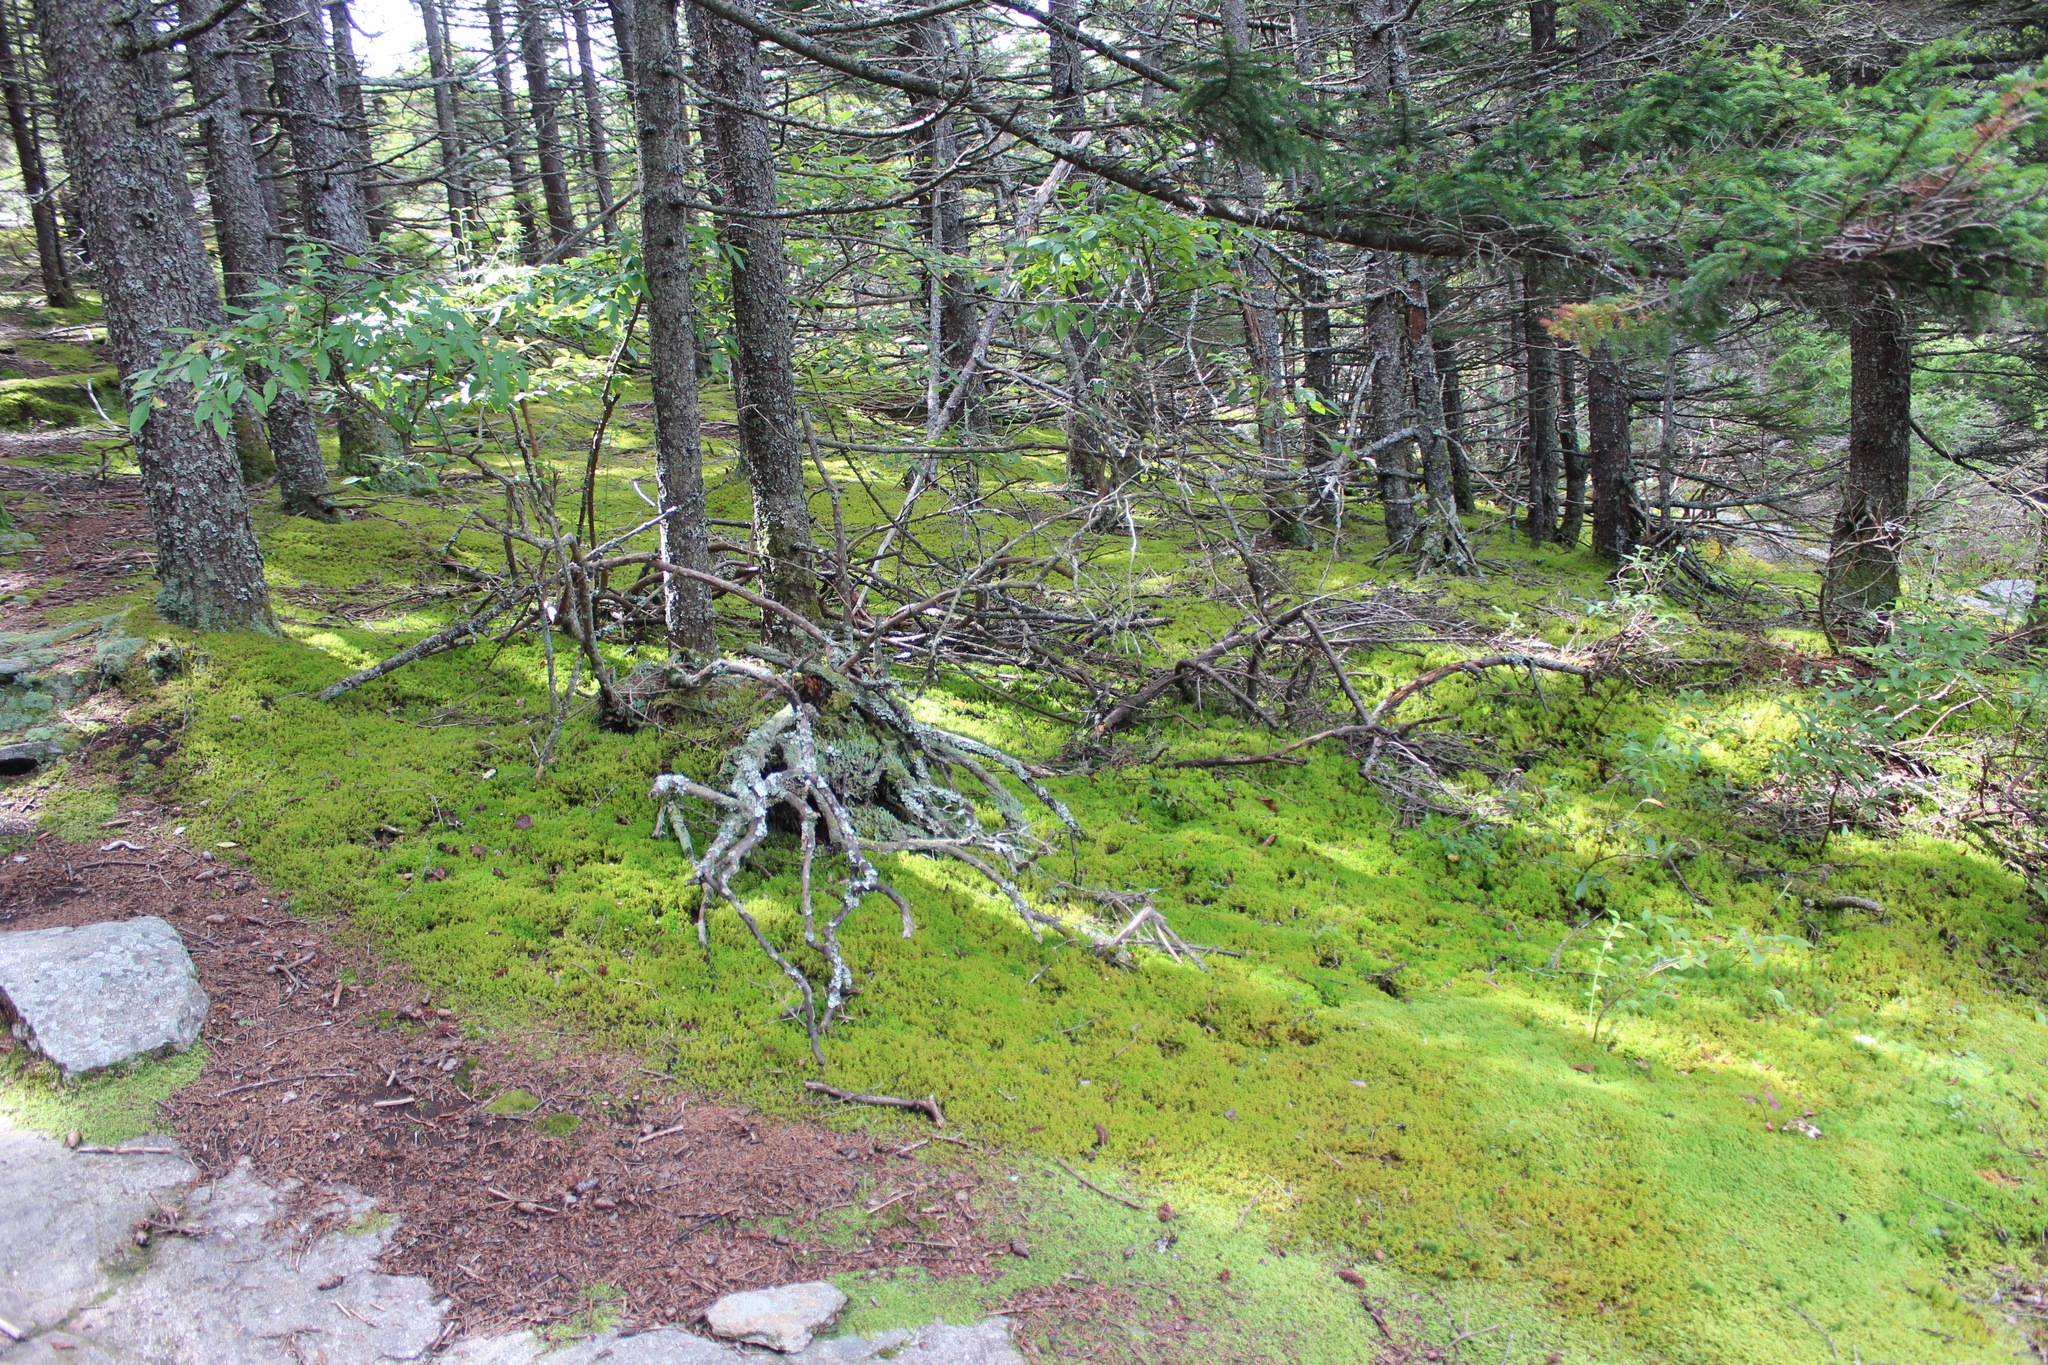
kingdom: Plantae
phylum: Marchantiophyta
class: Jungermanniopsida
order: Ptilidiales
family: Ptilidiaceae
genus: Ptilidium
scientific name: Ptilidium ciliare
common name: Ciliate fringewort
